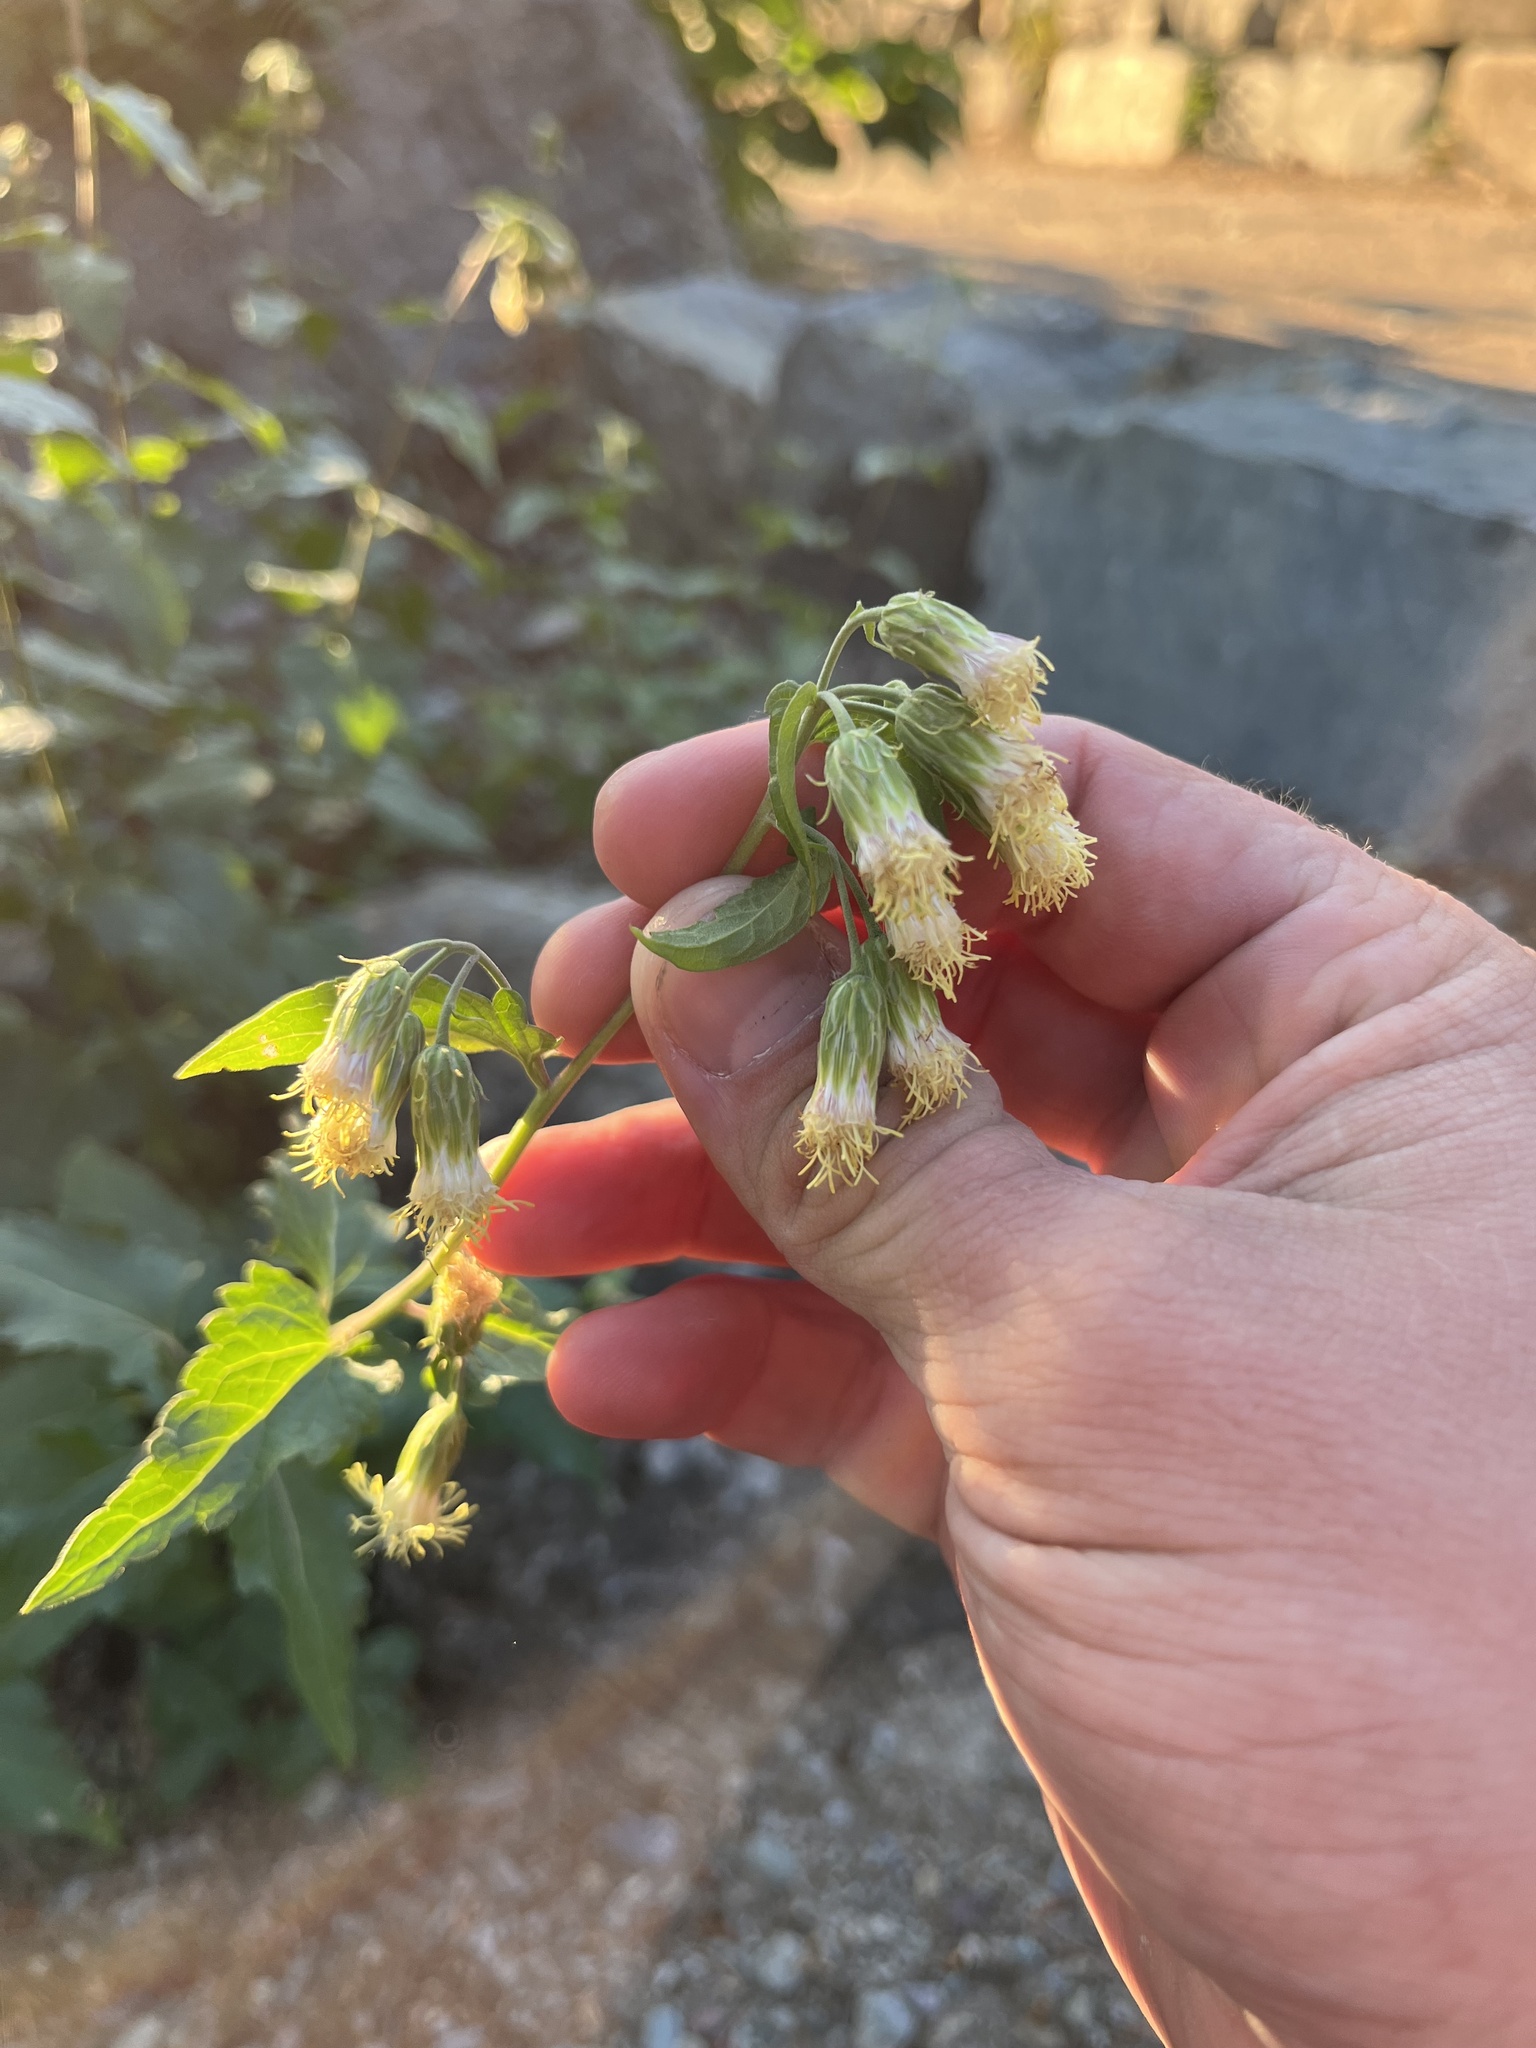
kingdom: Plantae
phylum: Tracheophyta
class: Magnoliopsida
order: Asterales
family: Asteraceae
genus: Brickellia
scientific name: Brickellia grandiflora
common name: Large-flowered brickellia
